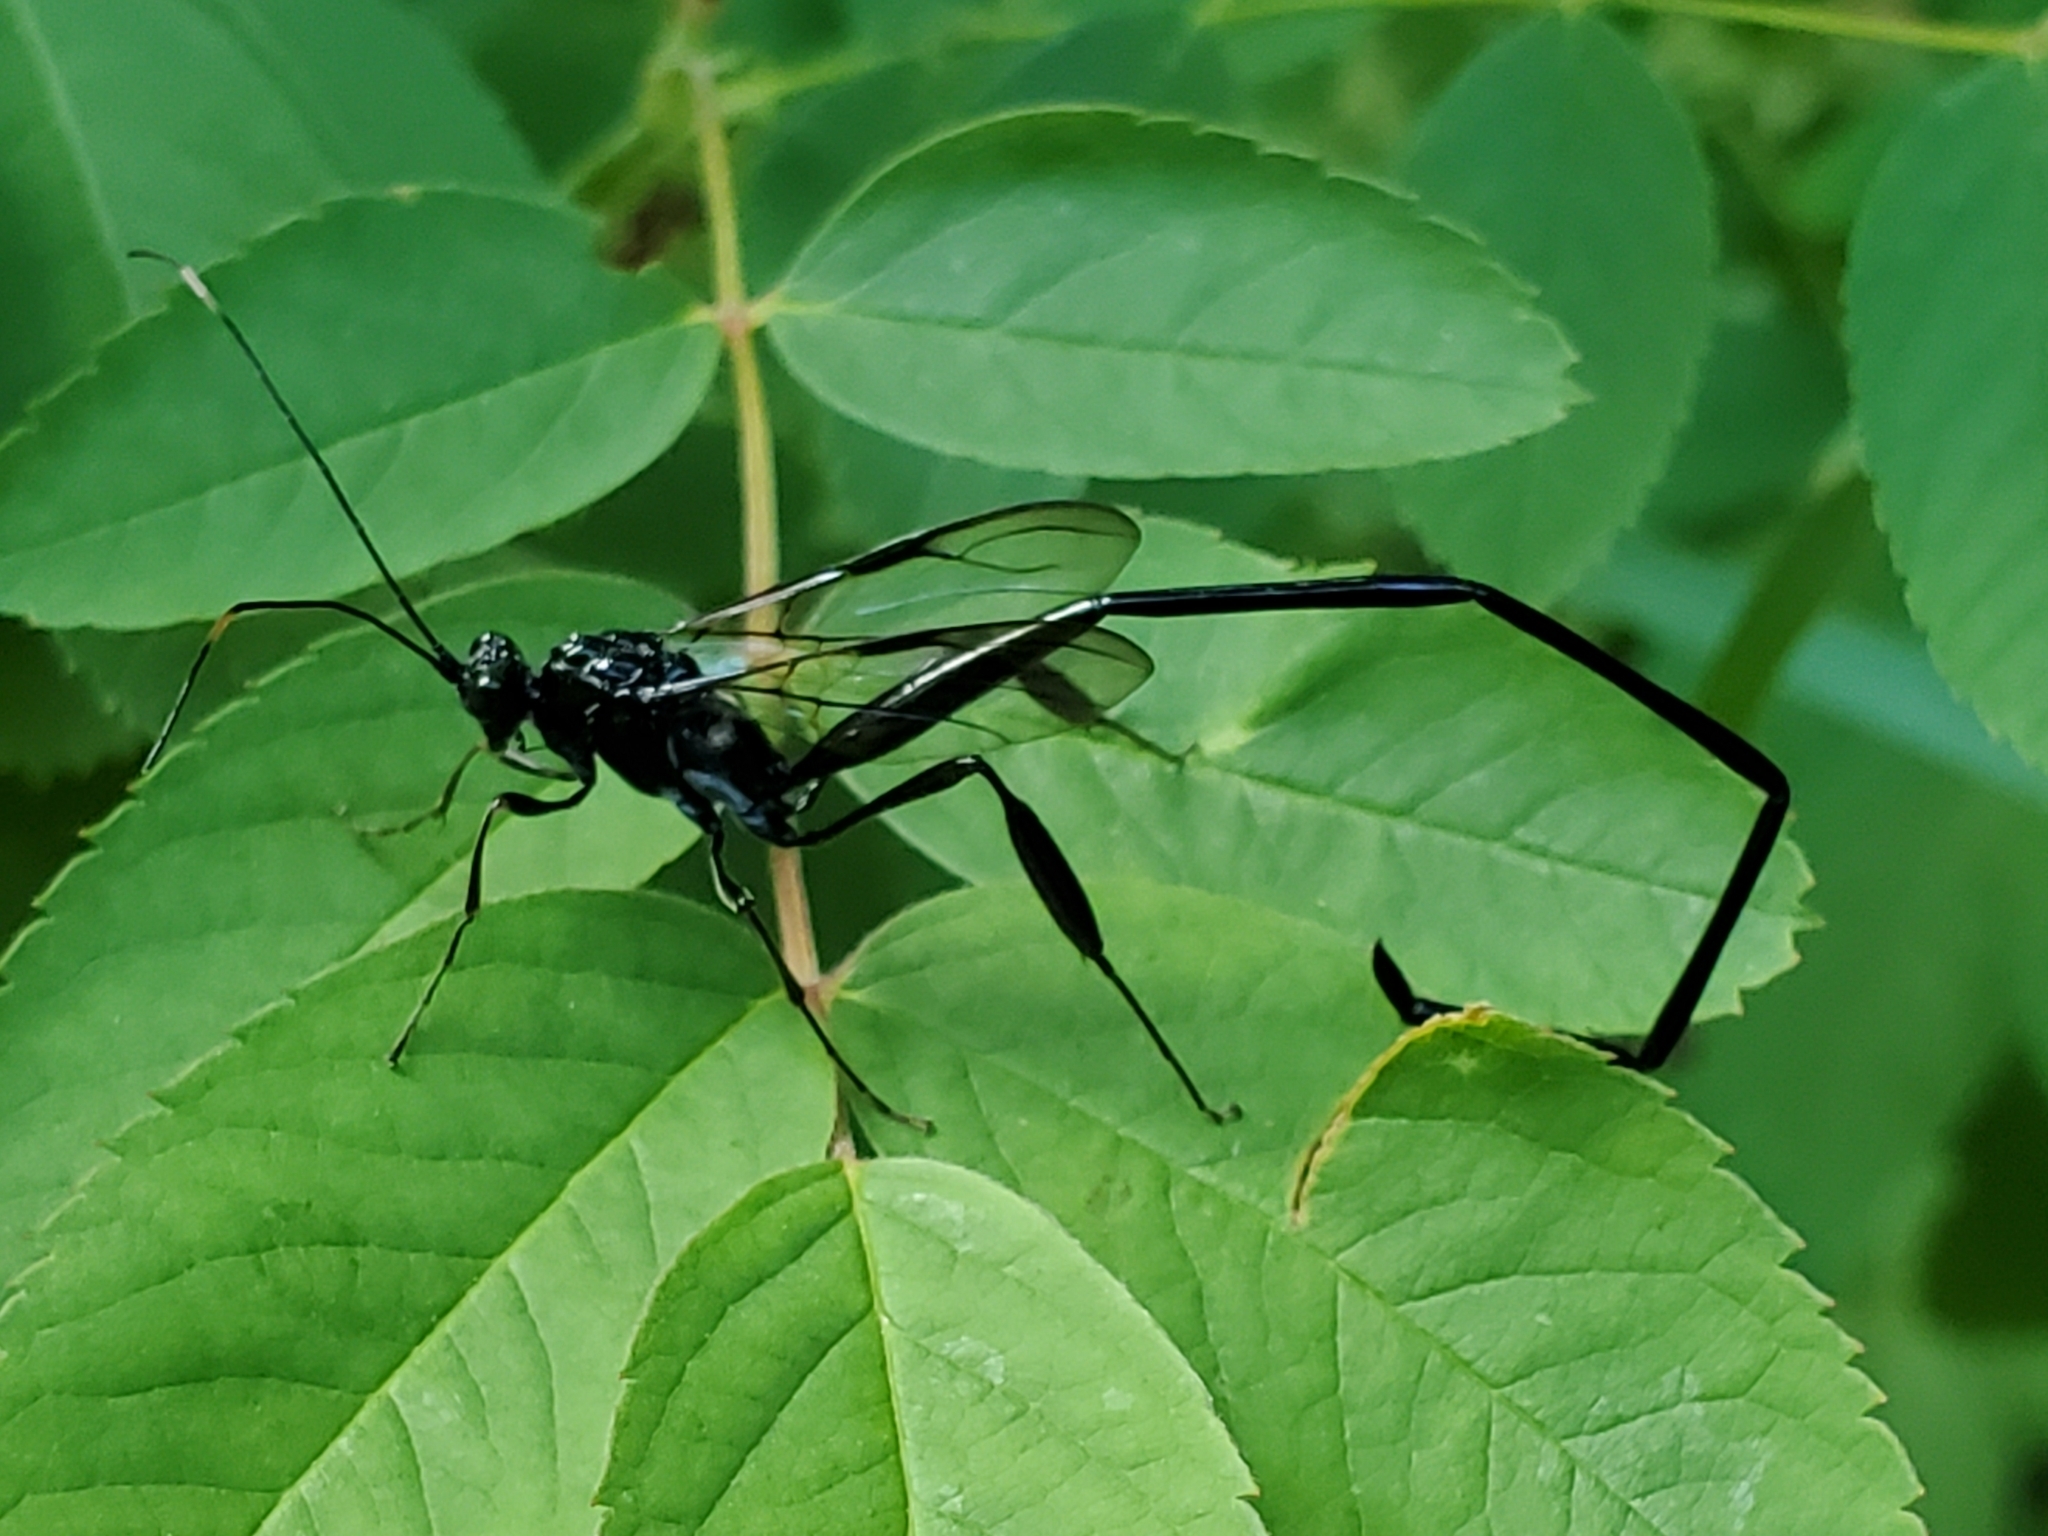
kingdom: Animalia
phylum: Arthropoda
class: Insecta
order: Hymenoptera
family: Pelecinidae
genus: Pelecinus
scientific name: Pelecinus polyturator
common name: American pelecinid wasp
